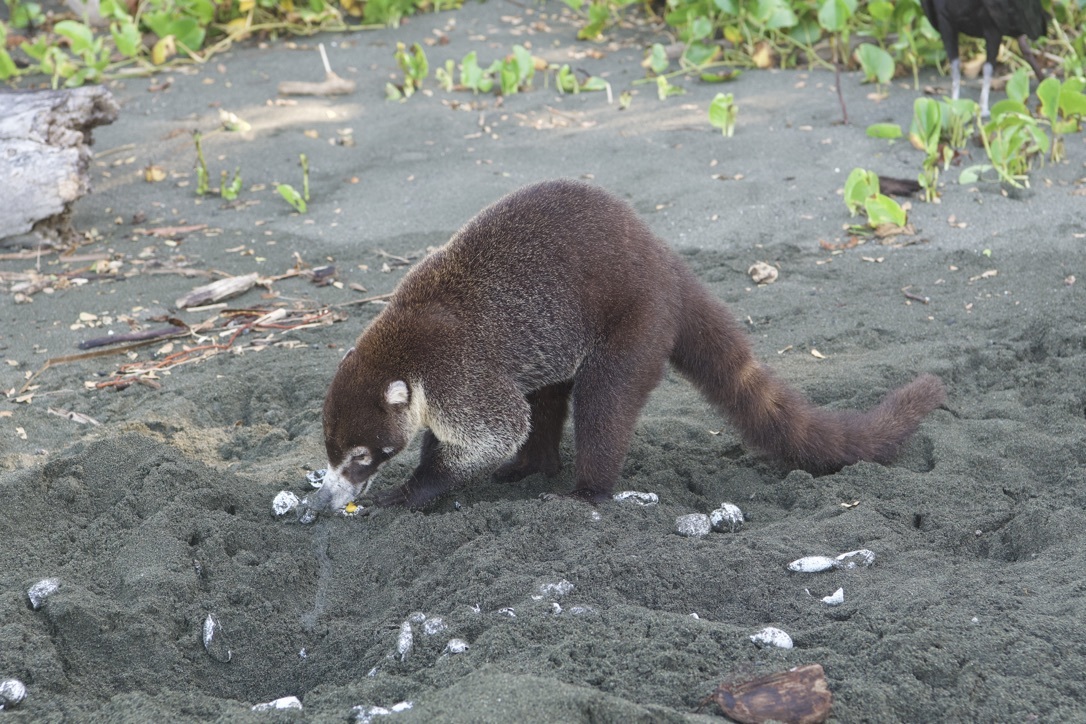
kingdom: Animalia
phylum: Chordata
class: Mammalia
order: Carnivora
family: Procyonidae
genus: Nasua
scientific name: Nasua narica
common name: White-nosed coati
